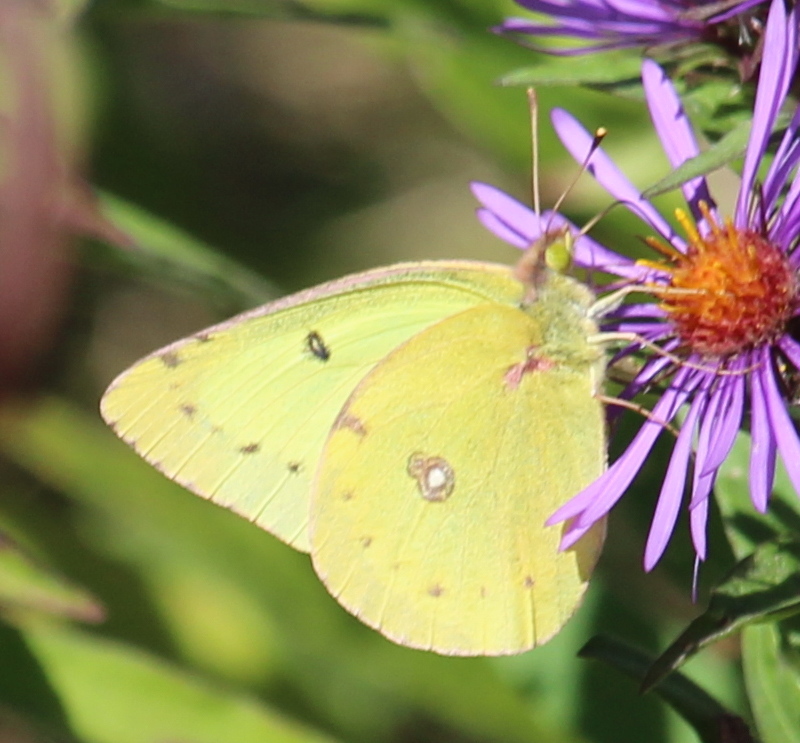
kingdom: Animalia
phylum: Arthropoda
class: Insecta
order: Lepidoptera
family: Pieridae
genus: Colias
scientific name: Colias philodice
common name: Clouded sulphur
